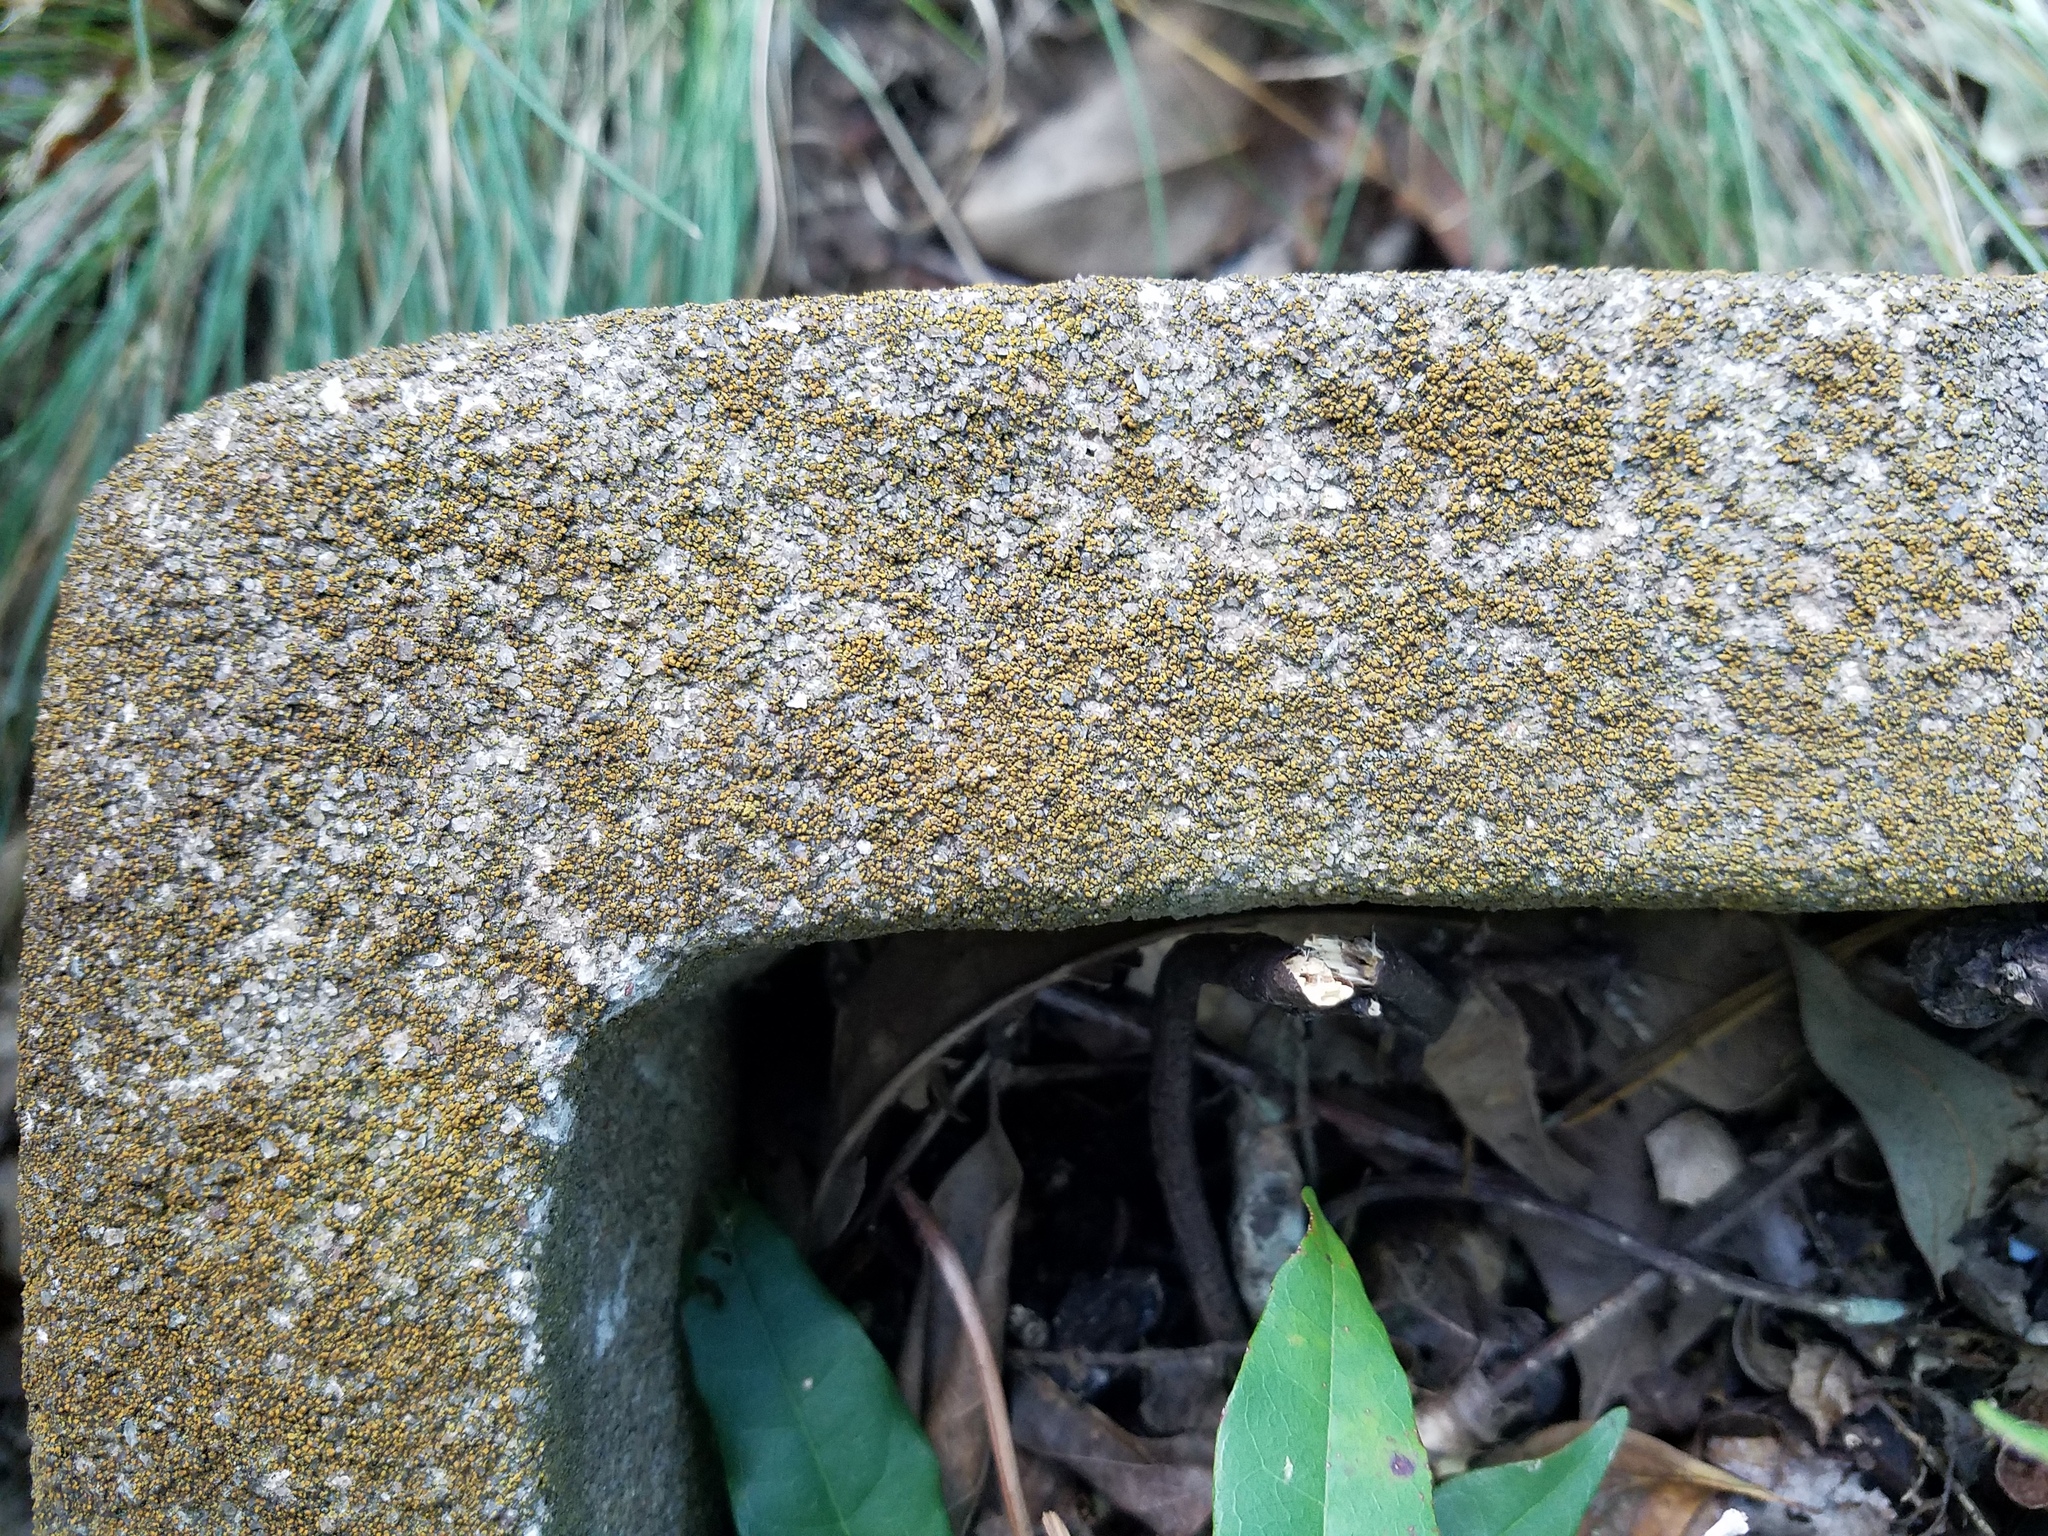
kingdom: Fungi
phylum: Ascomycota
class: Lecanoromycetes
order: Teloschistales
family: Teloschistaceae
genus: Gyalolechia
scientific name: Gyalolechia flavovirescens
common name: Sulphur firedot
